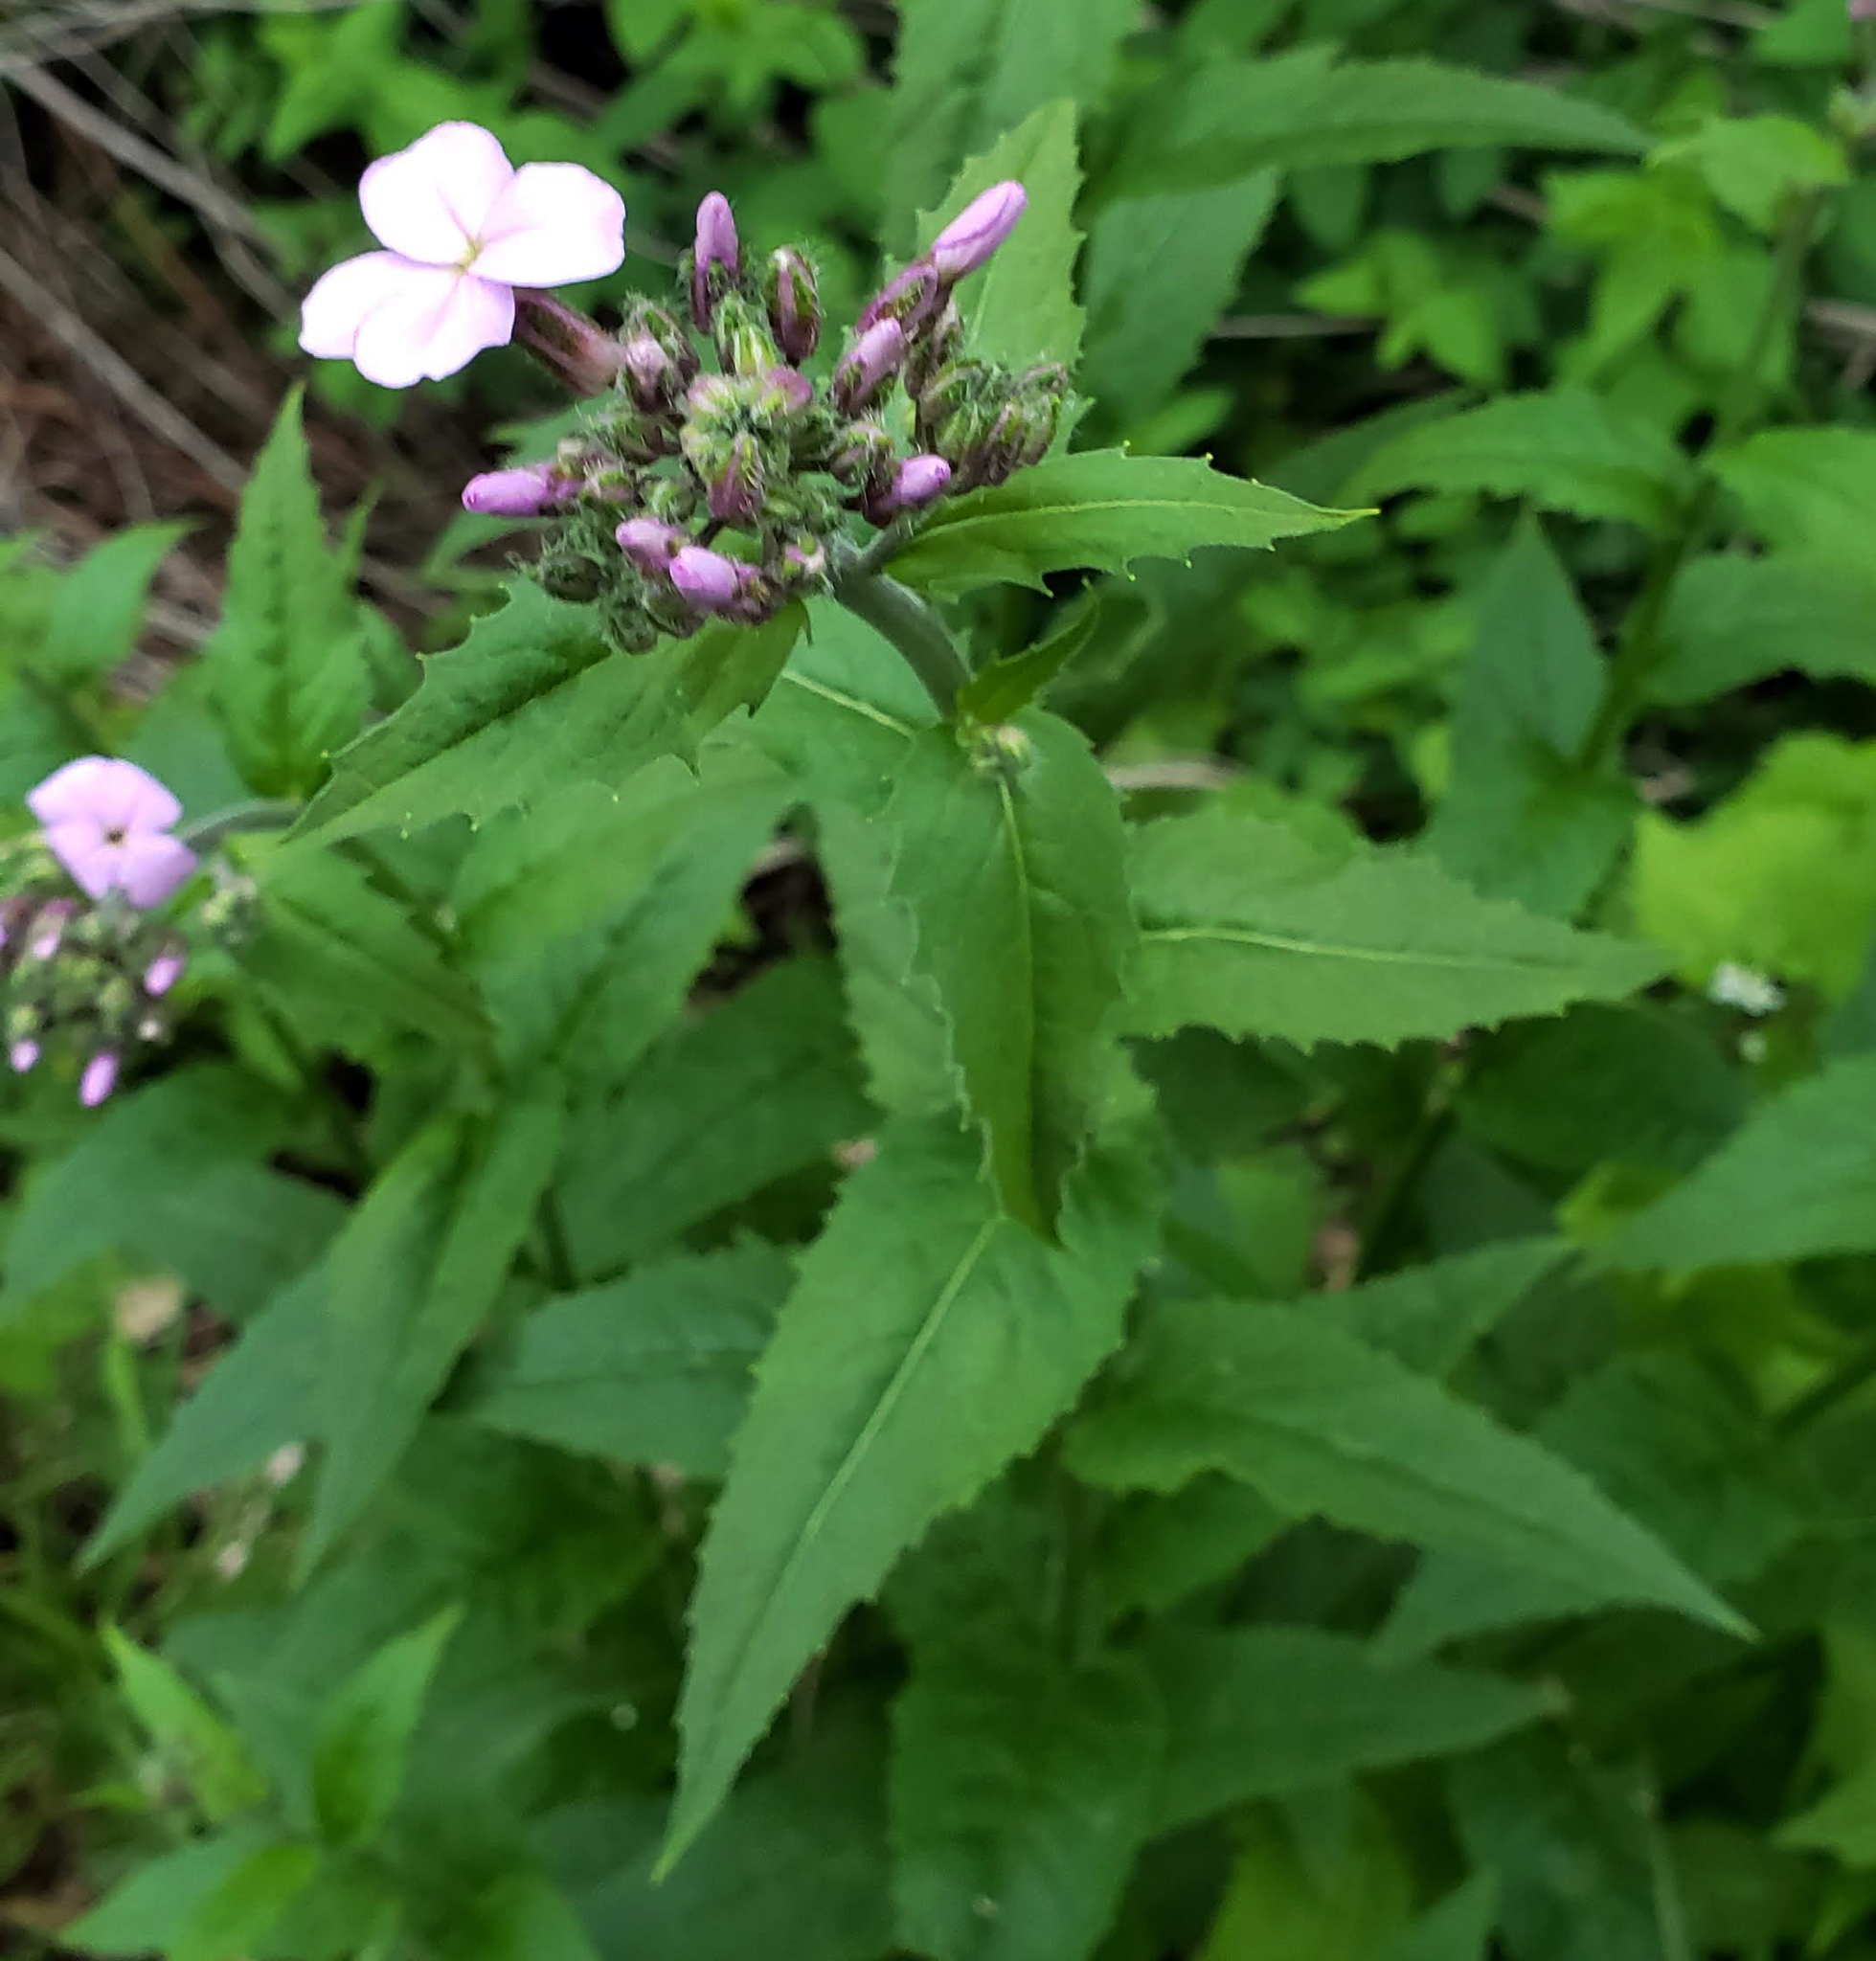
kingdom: Plantae
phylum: Tracheophyta
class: Magnoliopsida
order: Brassicales
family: Brassicaceae
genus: Hesperis
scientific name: Hesperis matronalis
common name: Dame's-violet
